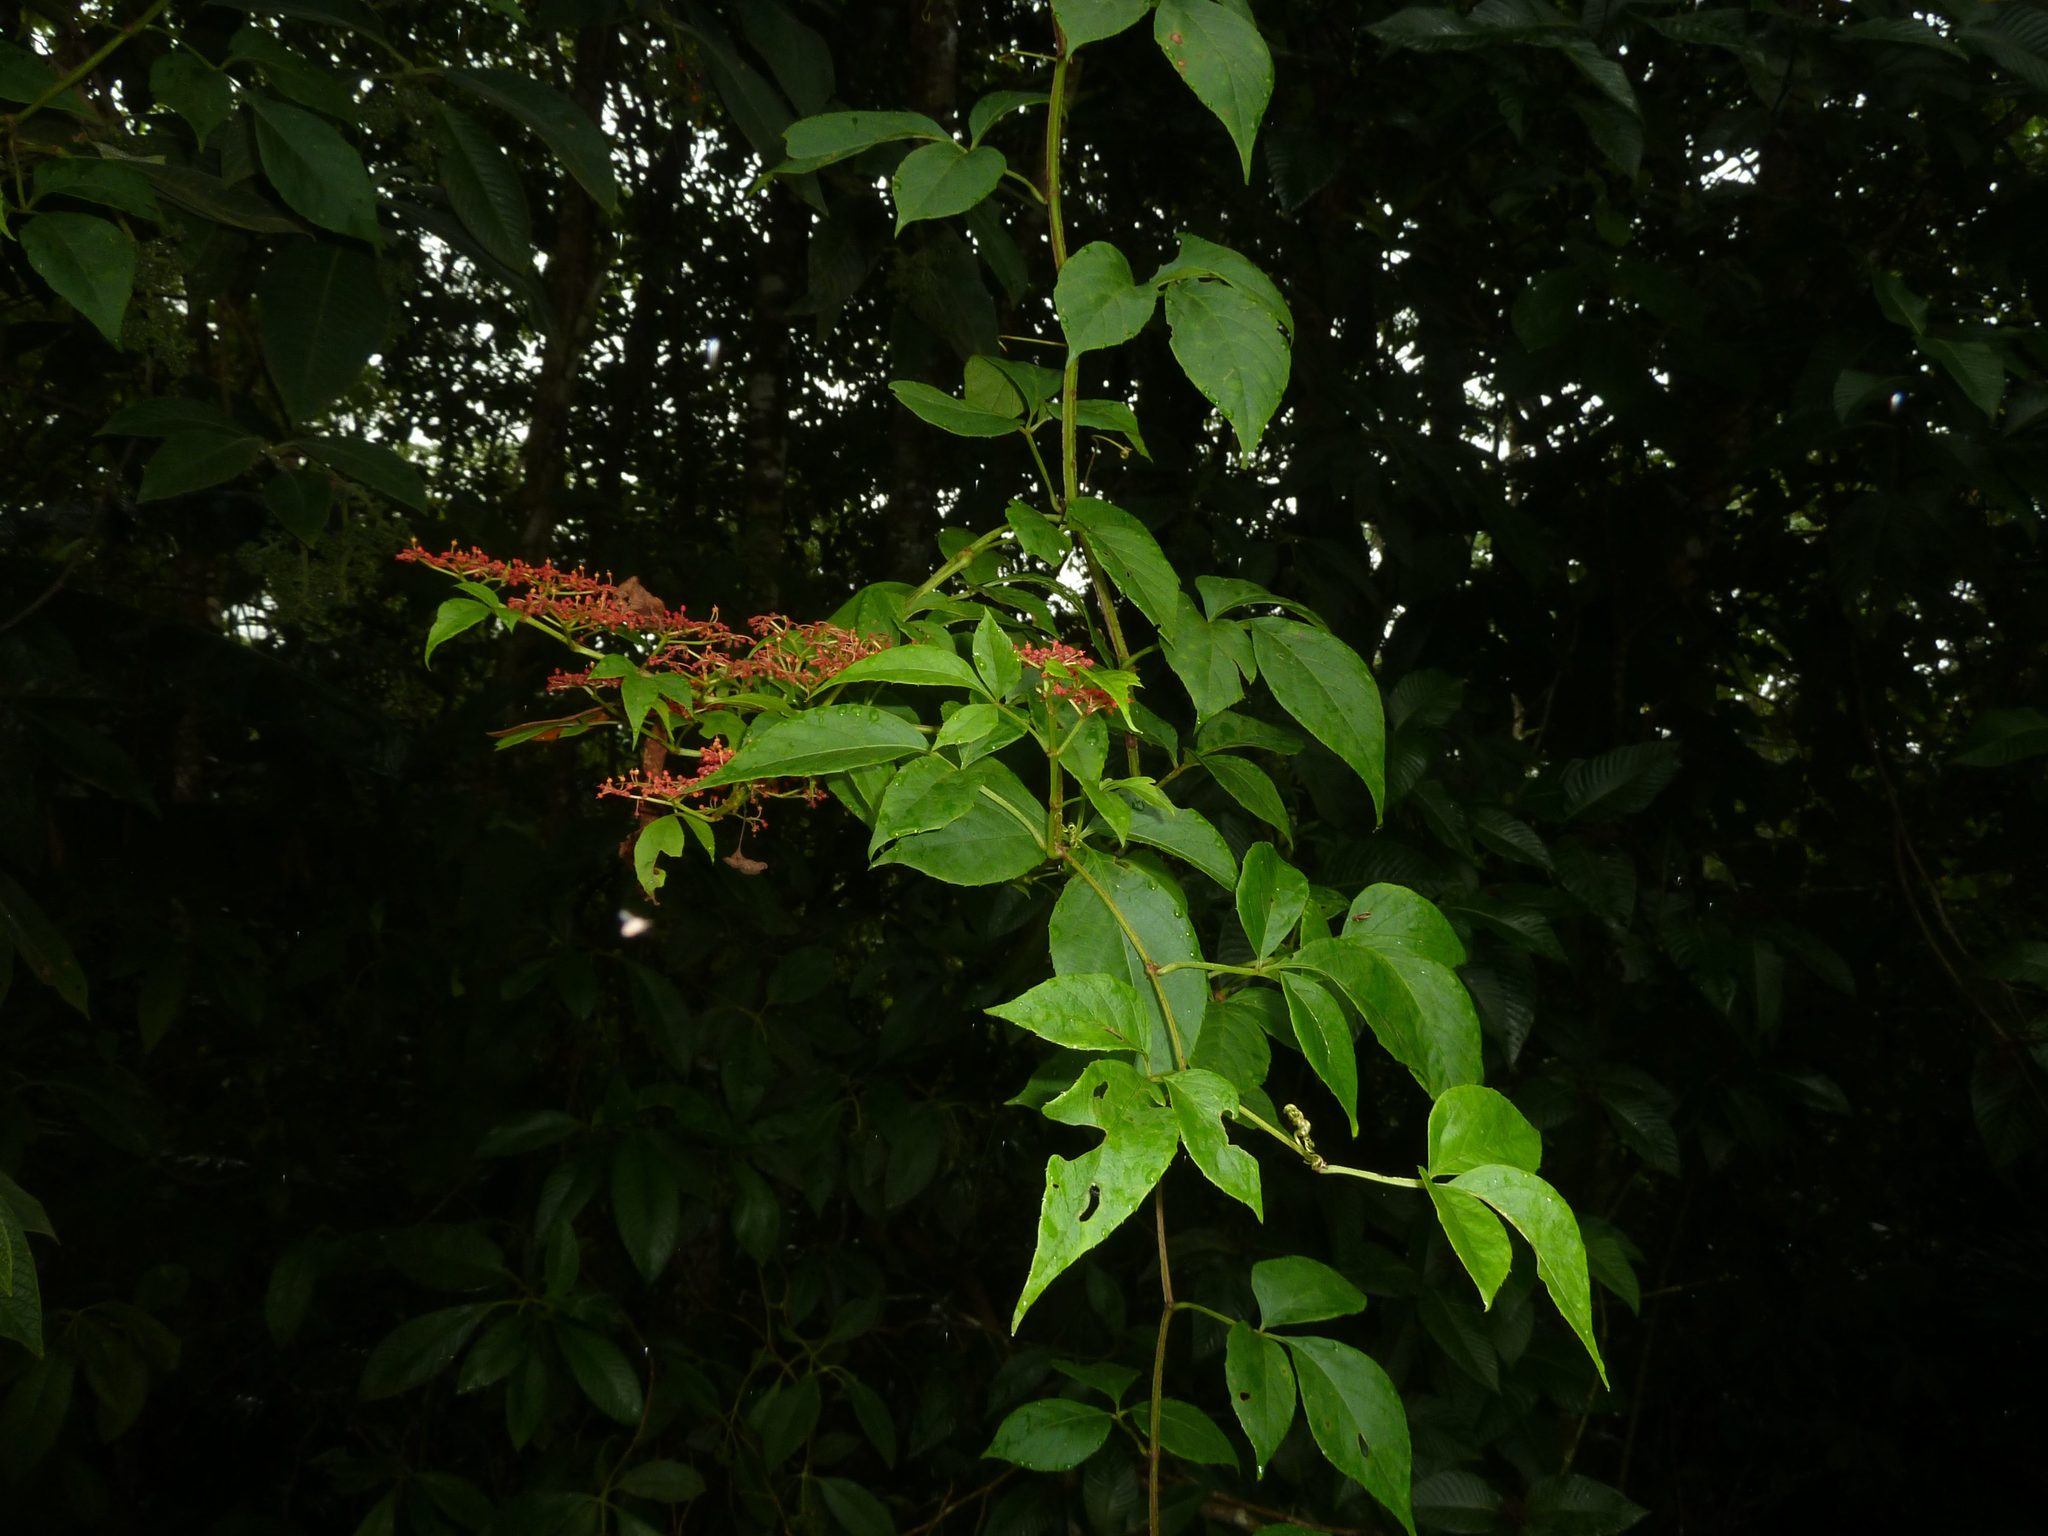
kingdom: Plantae
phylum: Tracheophyta
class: Magnoliopsida
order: Vitales
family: Vitaceae
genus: Cissus
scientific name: Cissus erosa
